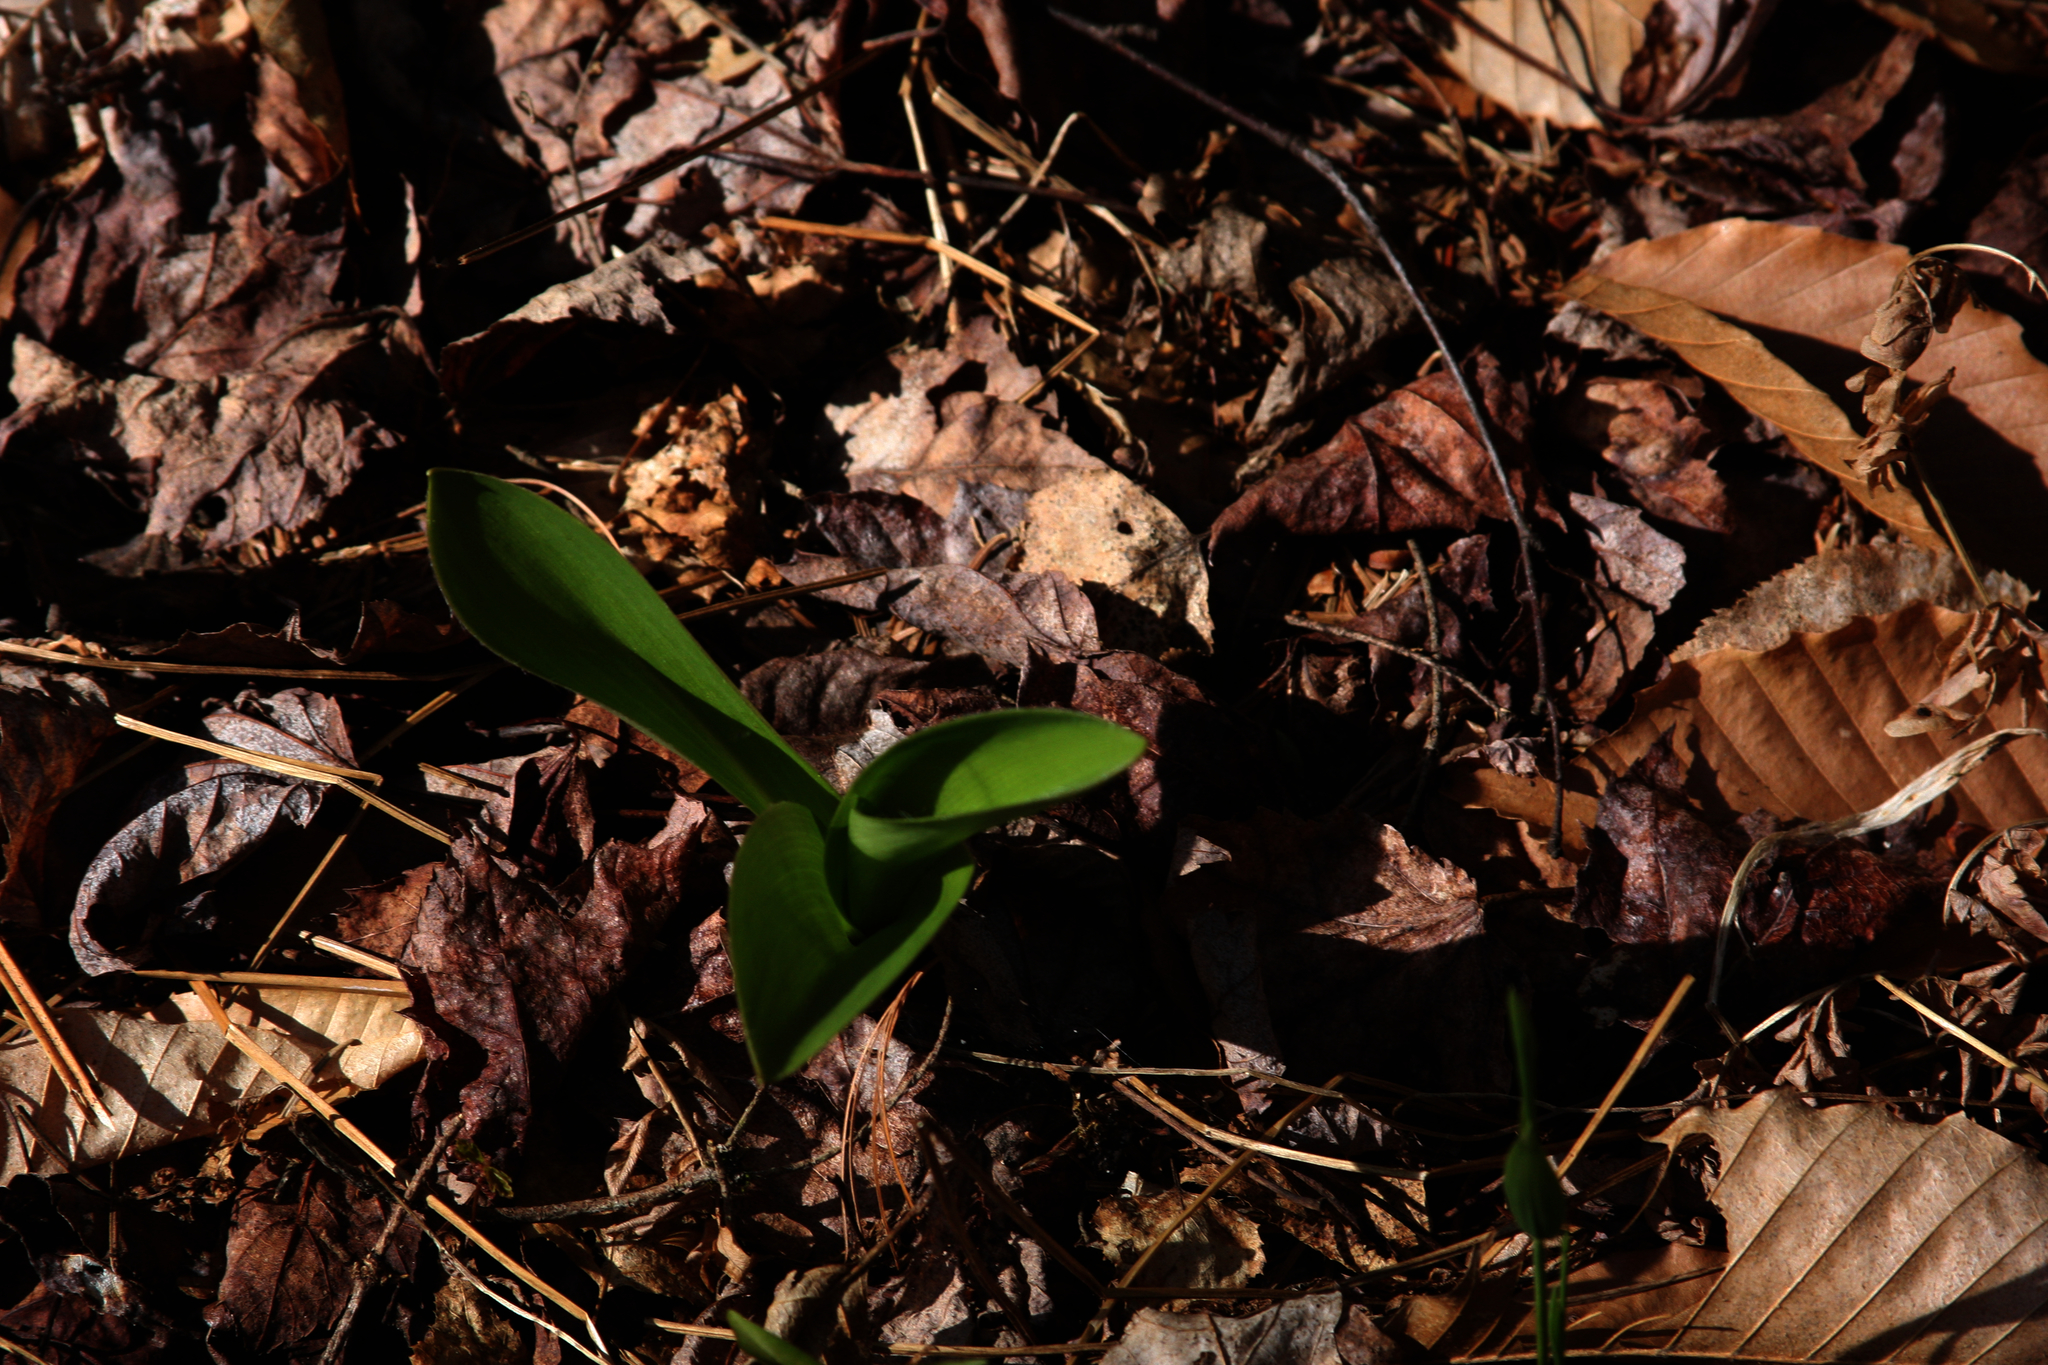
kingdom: Plantae
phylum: Tracheophyta
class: Liliopsida
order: Liliales
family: Liliaceae
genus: Clintonia
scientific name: Clintonia borealis
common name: Yellow clintonia
